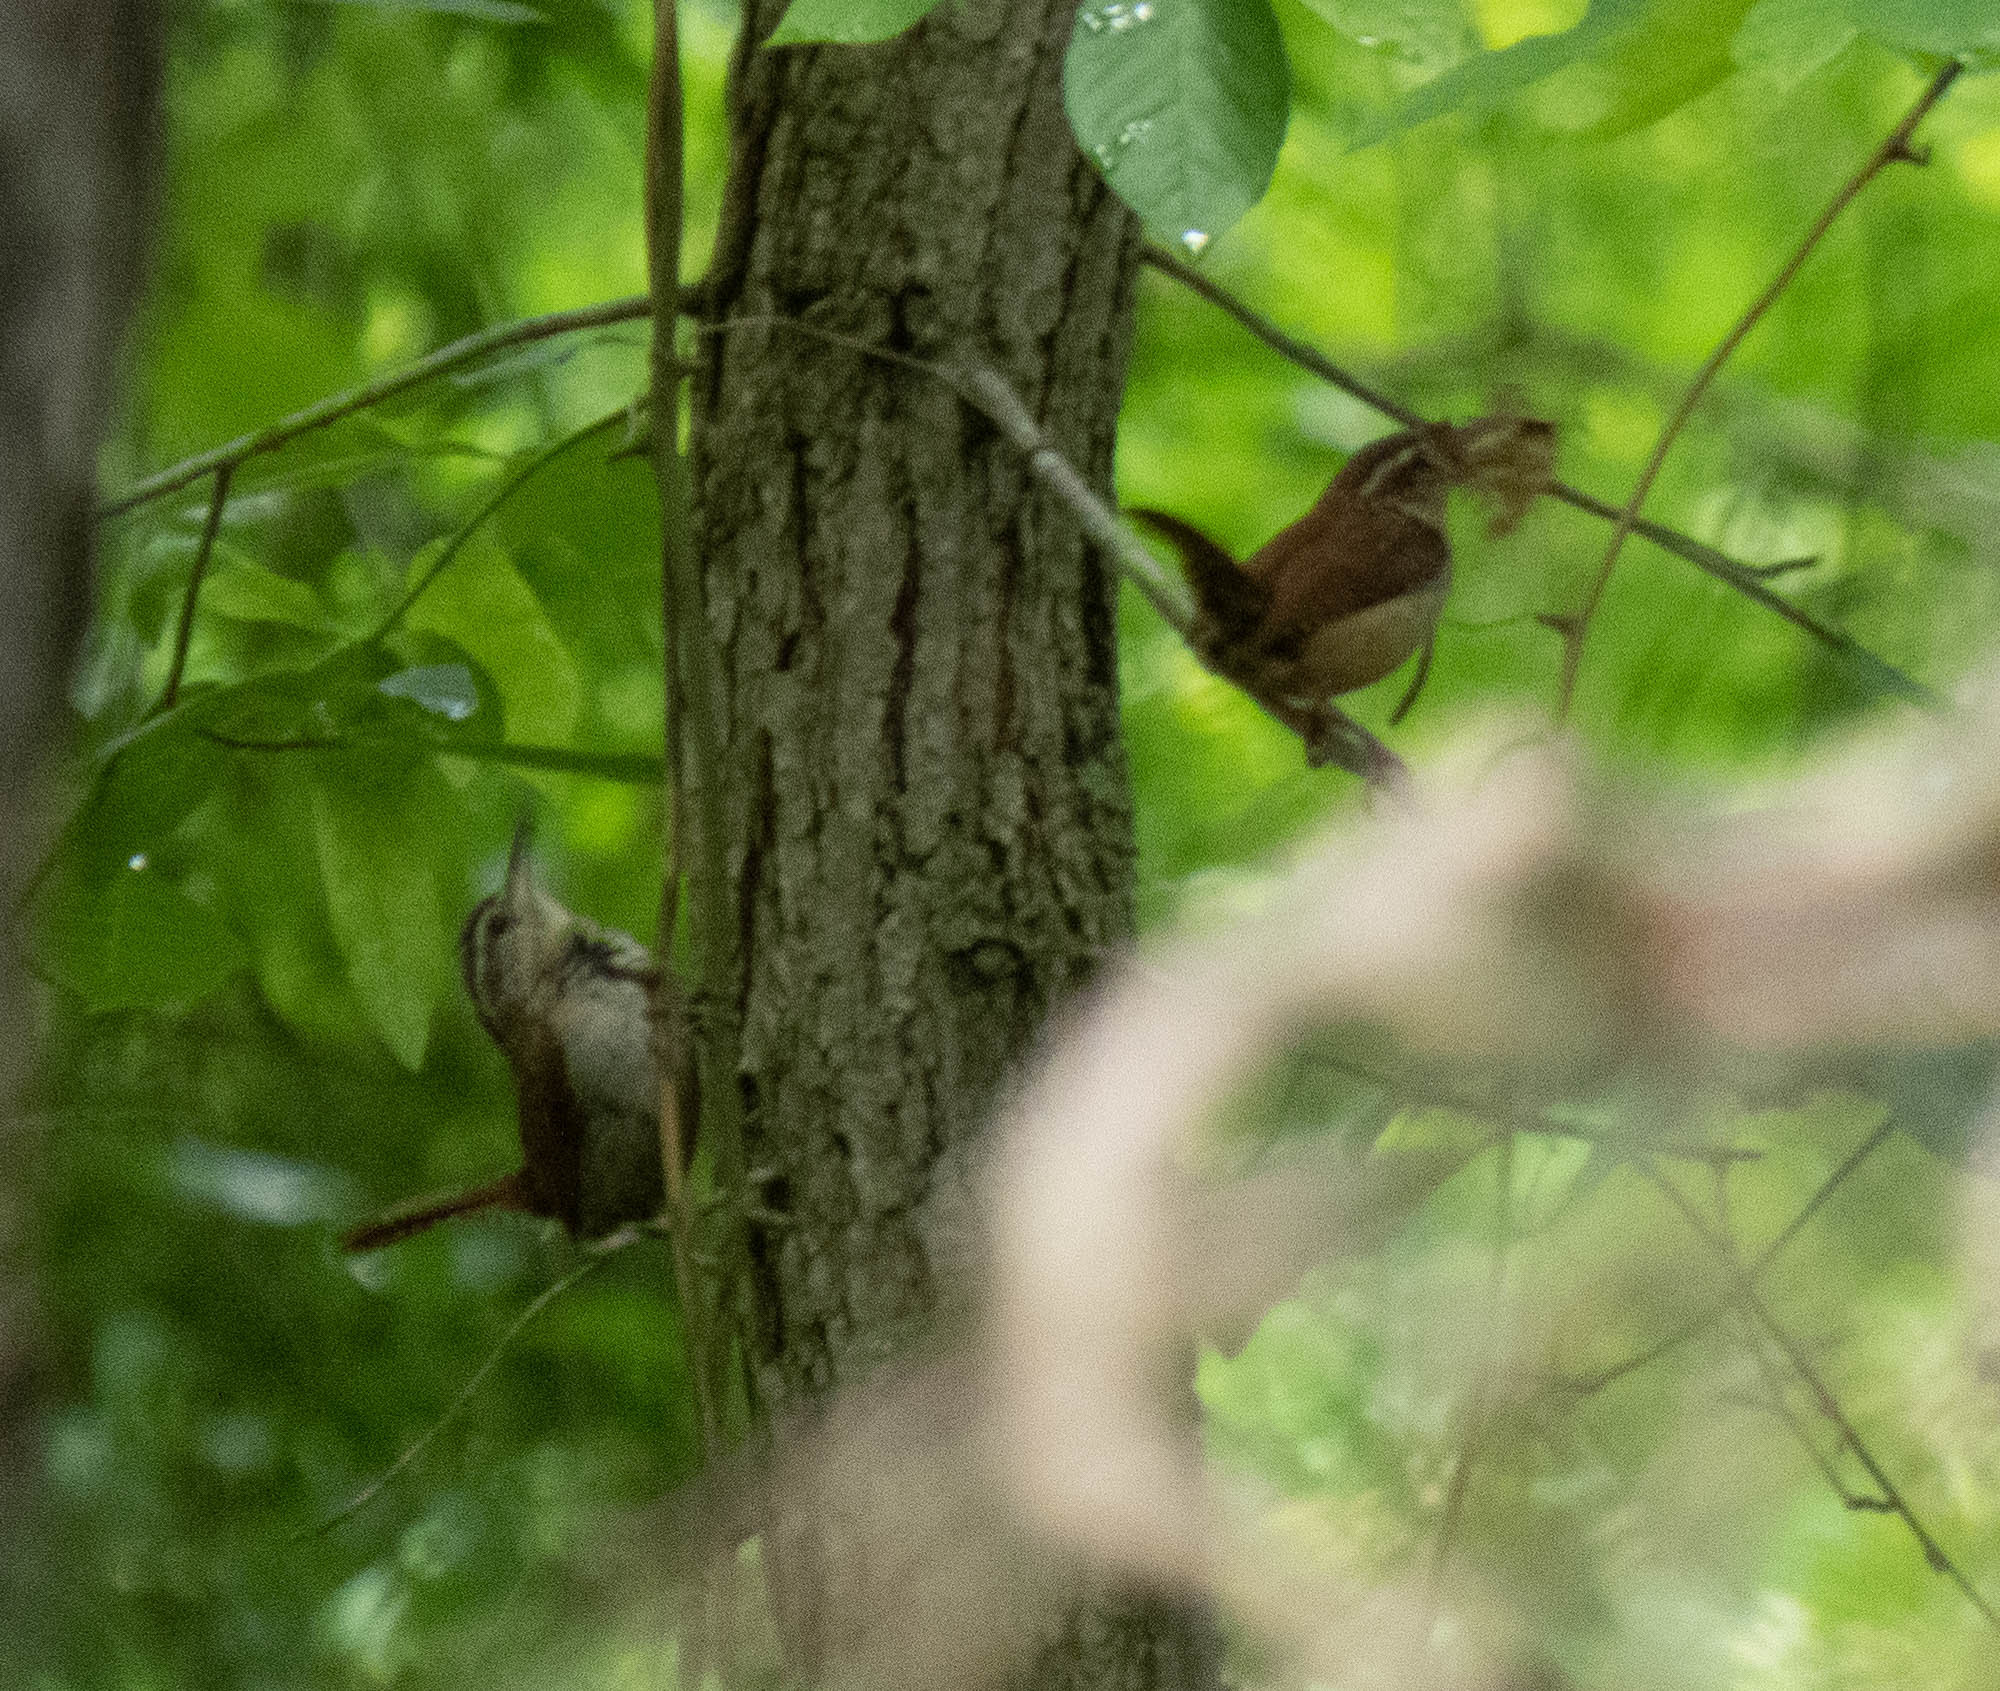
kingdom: Animalia
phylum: Chordata
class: Aves
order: Passeriformes
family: Troglodytidae
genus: Thryothorus
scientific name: Thryothorus ludovicianus
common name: Carolina wren
